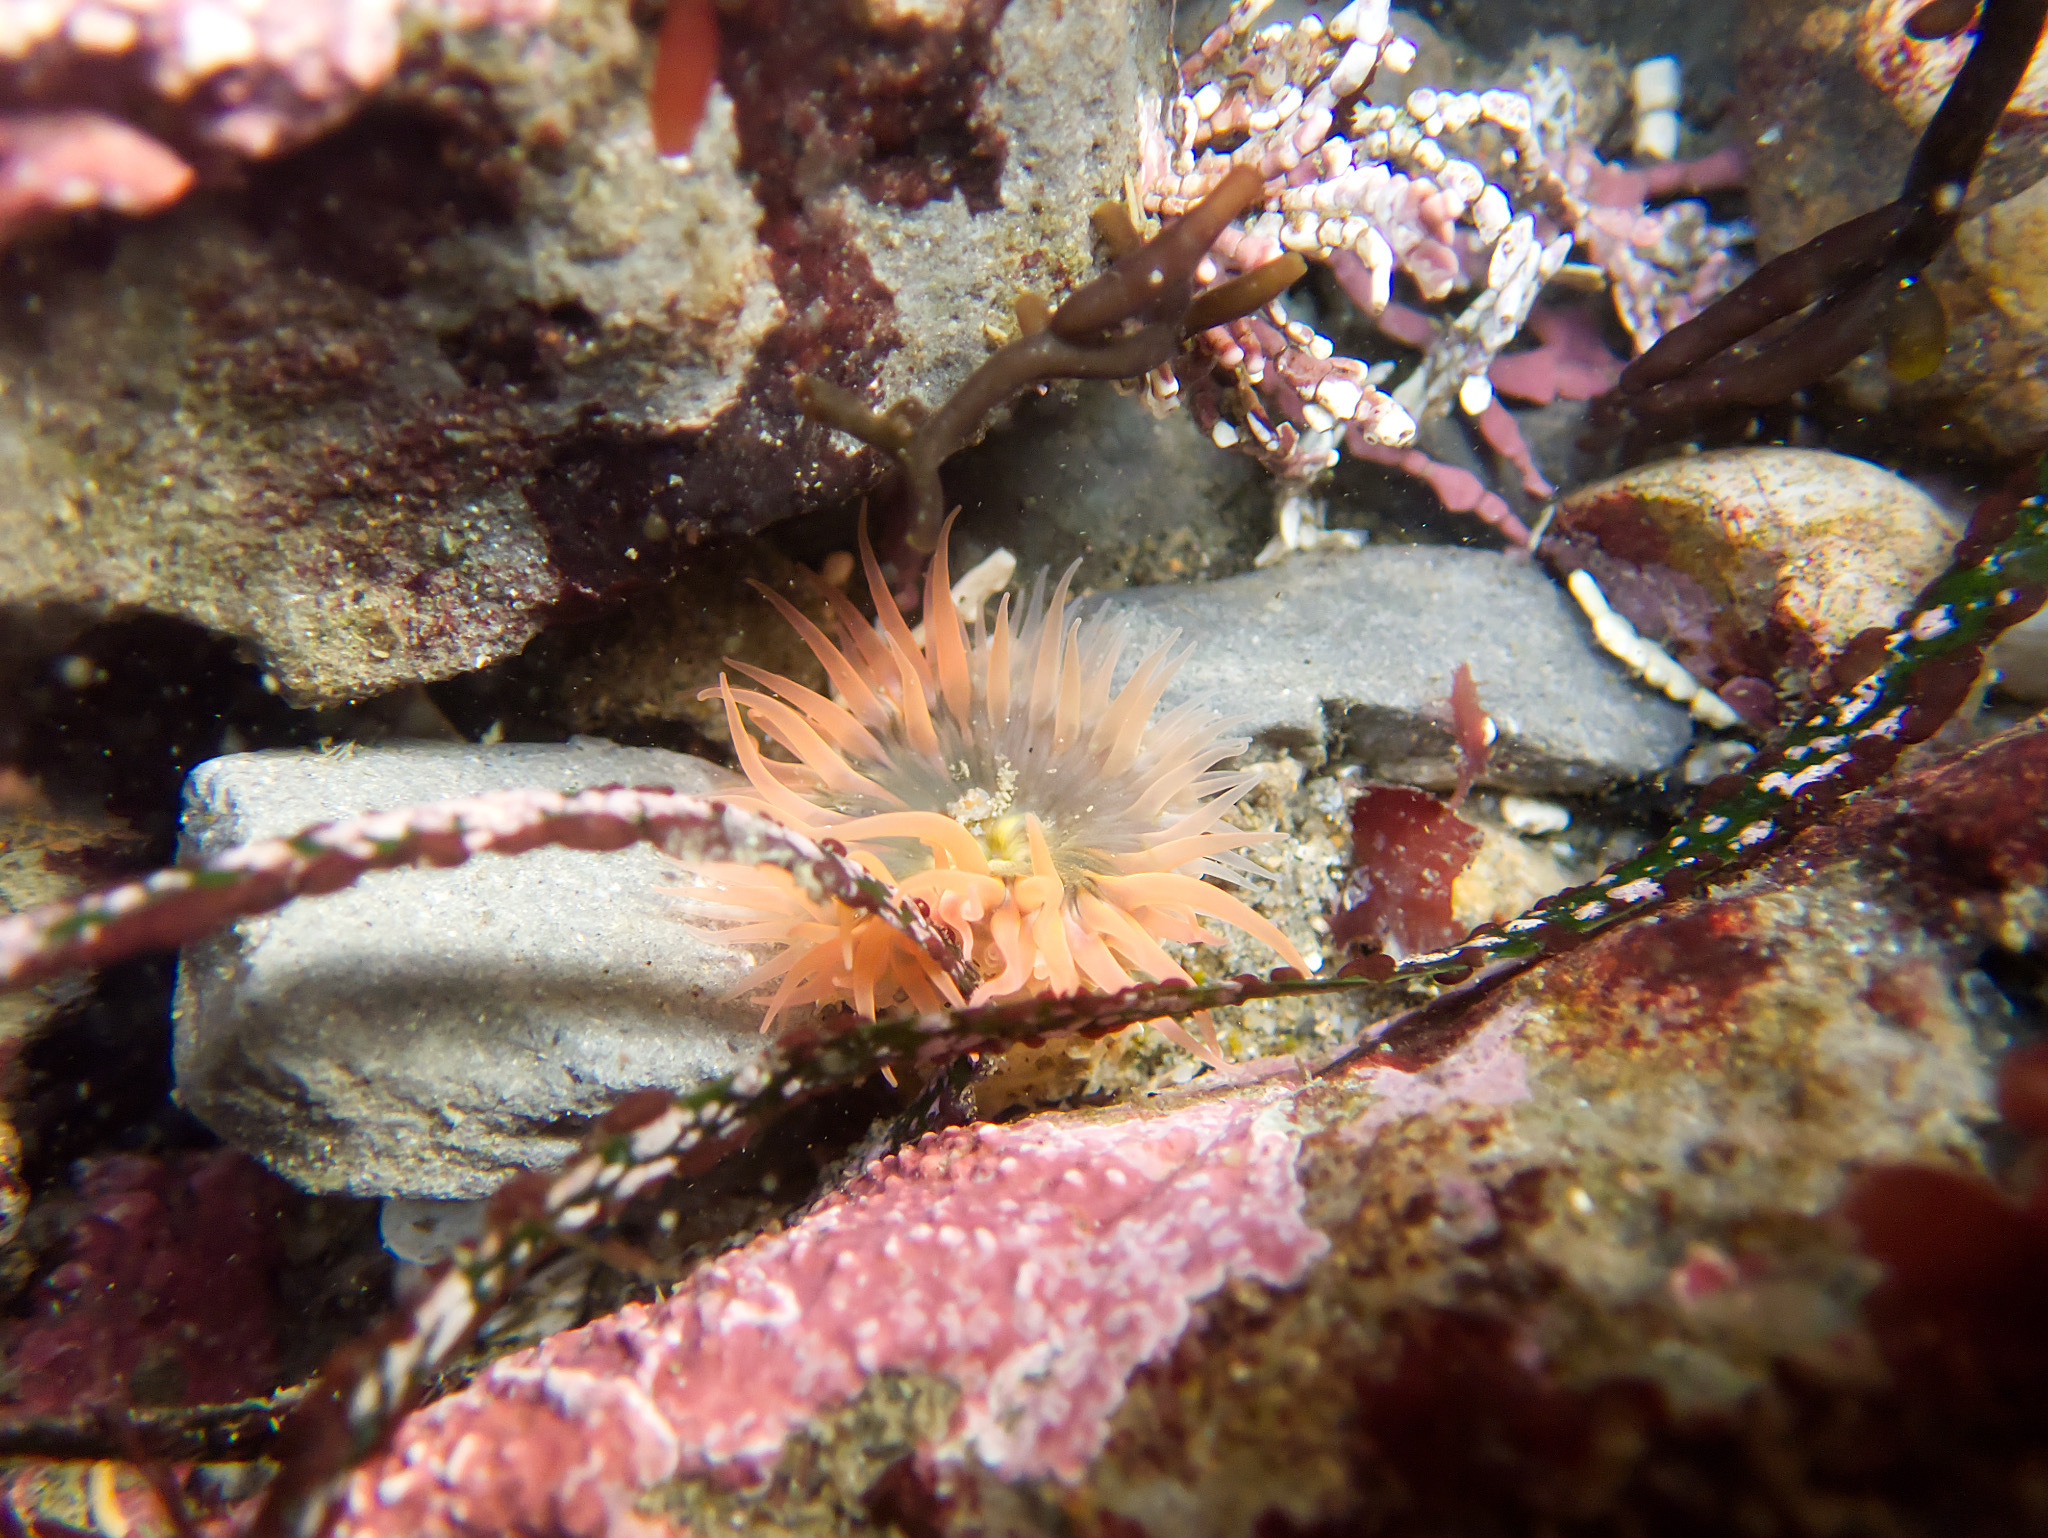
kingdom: Animalia
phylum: Cnidaria
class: Anthozoa
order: Actiniaria
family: Actiniidae
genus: Anthopleura
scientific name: Anthopleura artemisia
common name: Buried sea anemone
